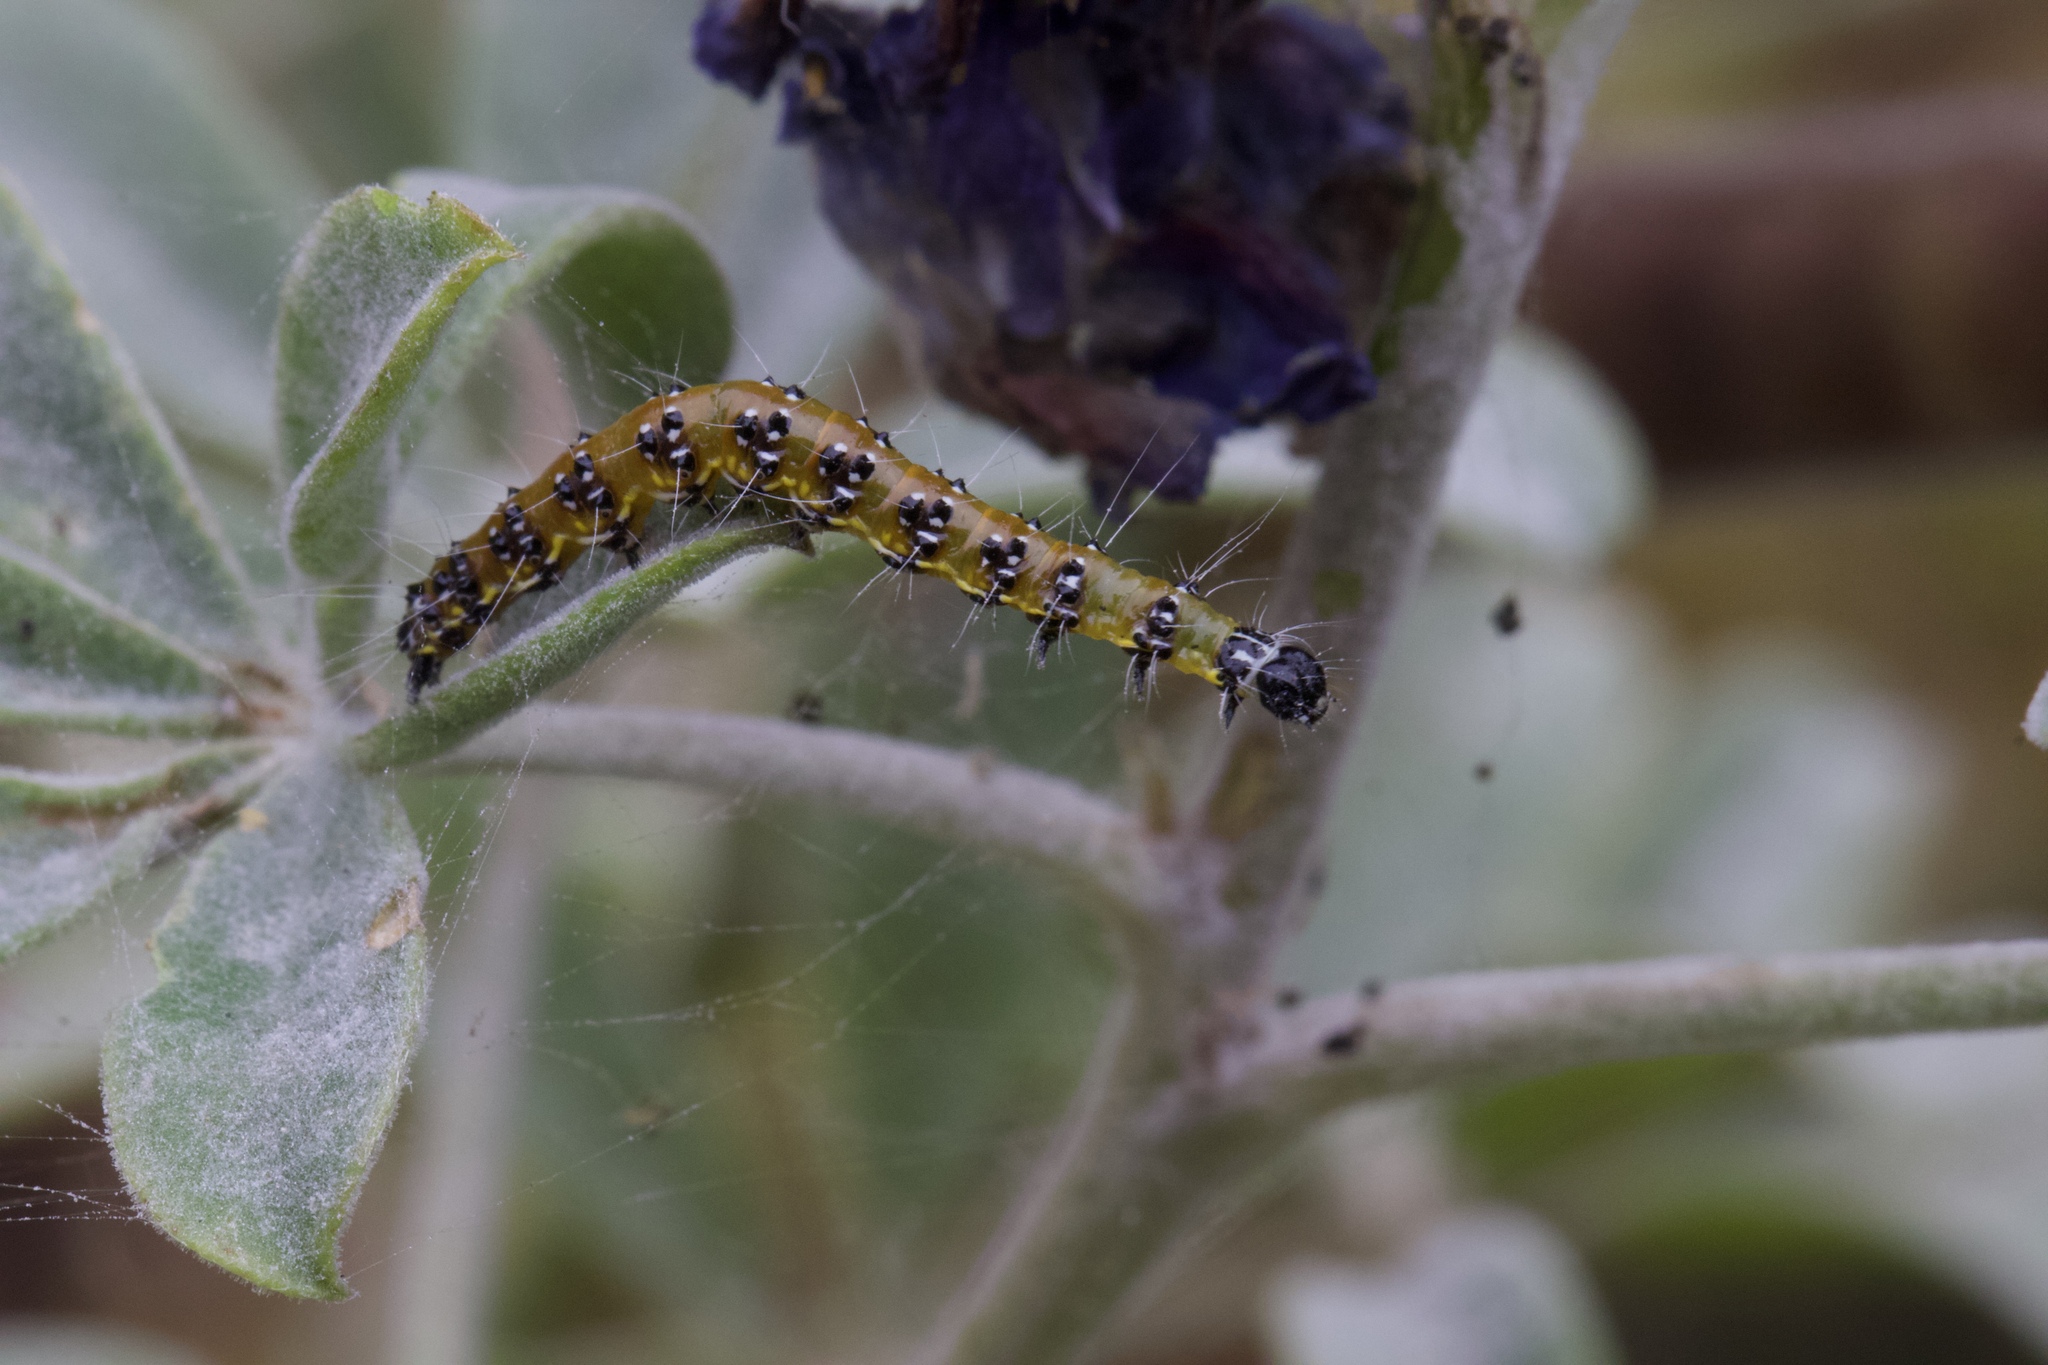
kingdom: Animalia
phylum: Arthropoda
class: Insecta
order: Lepidoptera
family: Crambidae
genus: Uresiphita
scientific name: Uresiphita reversalis
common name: Genista broom moth
